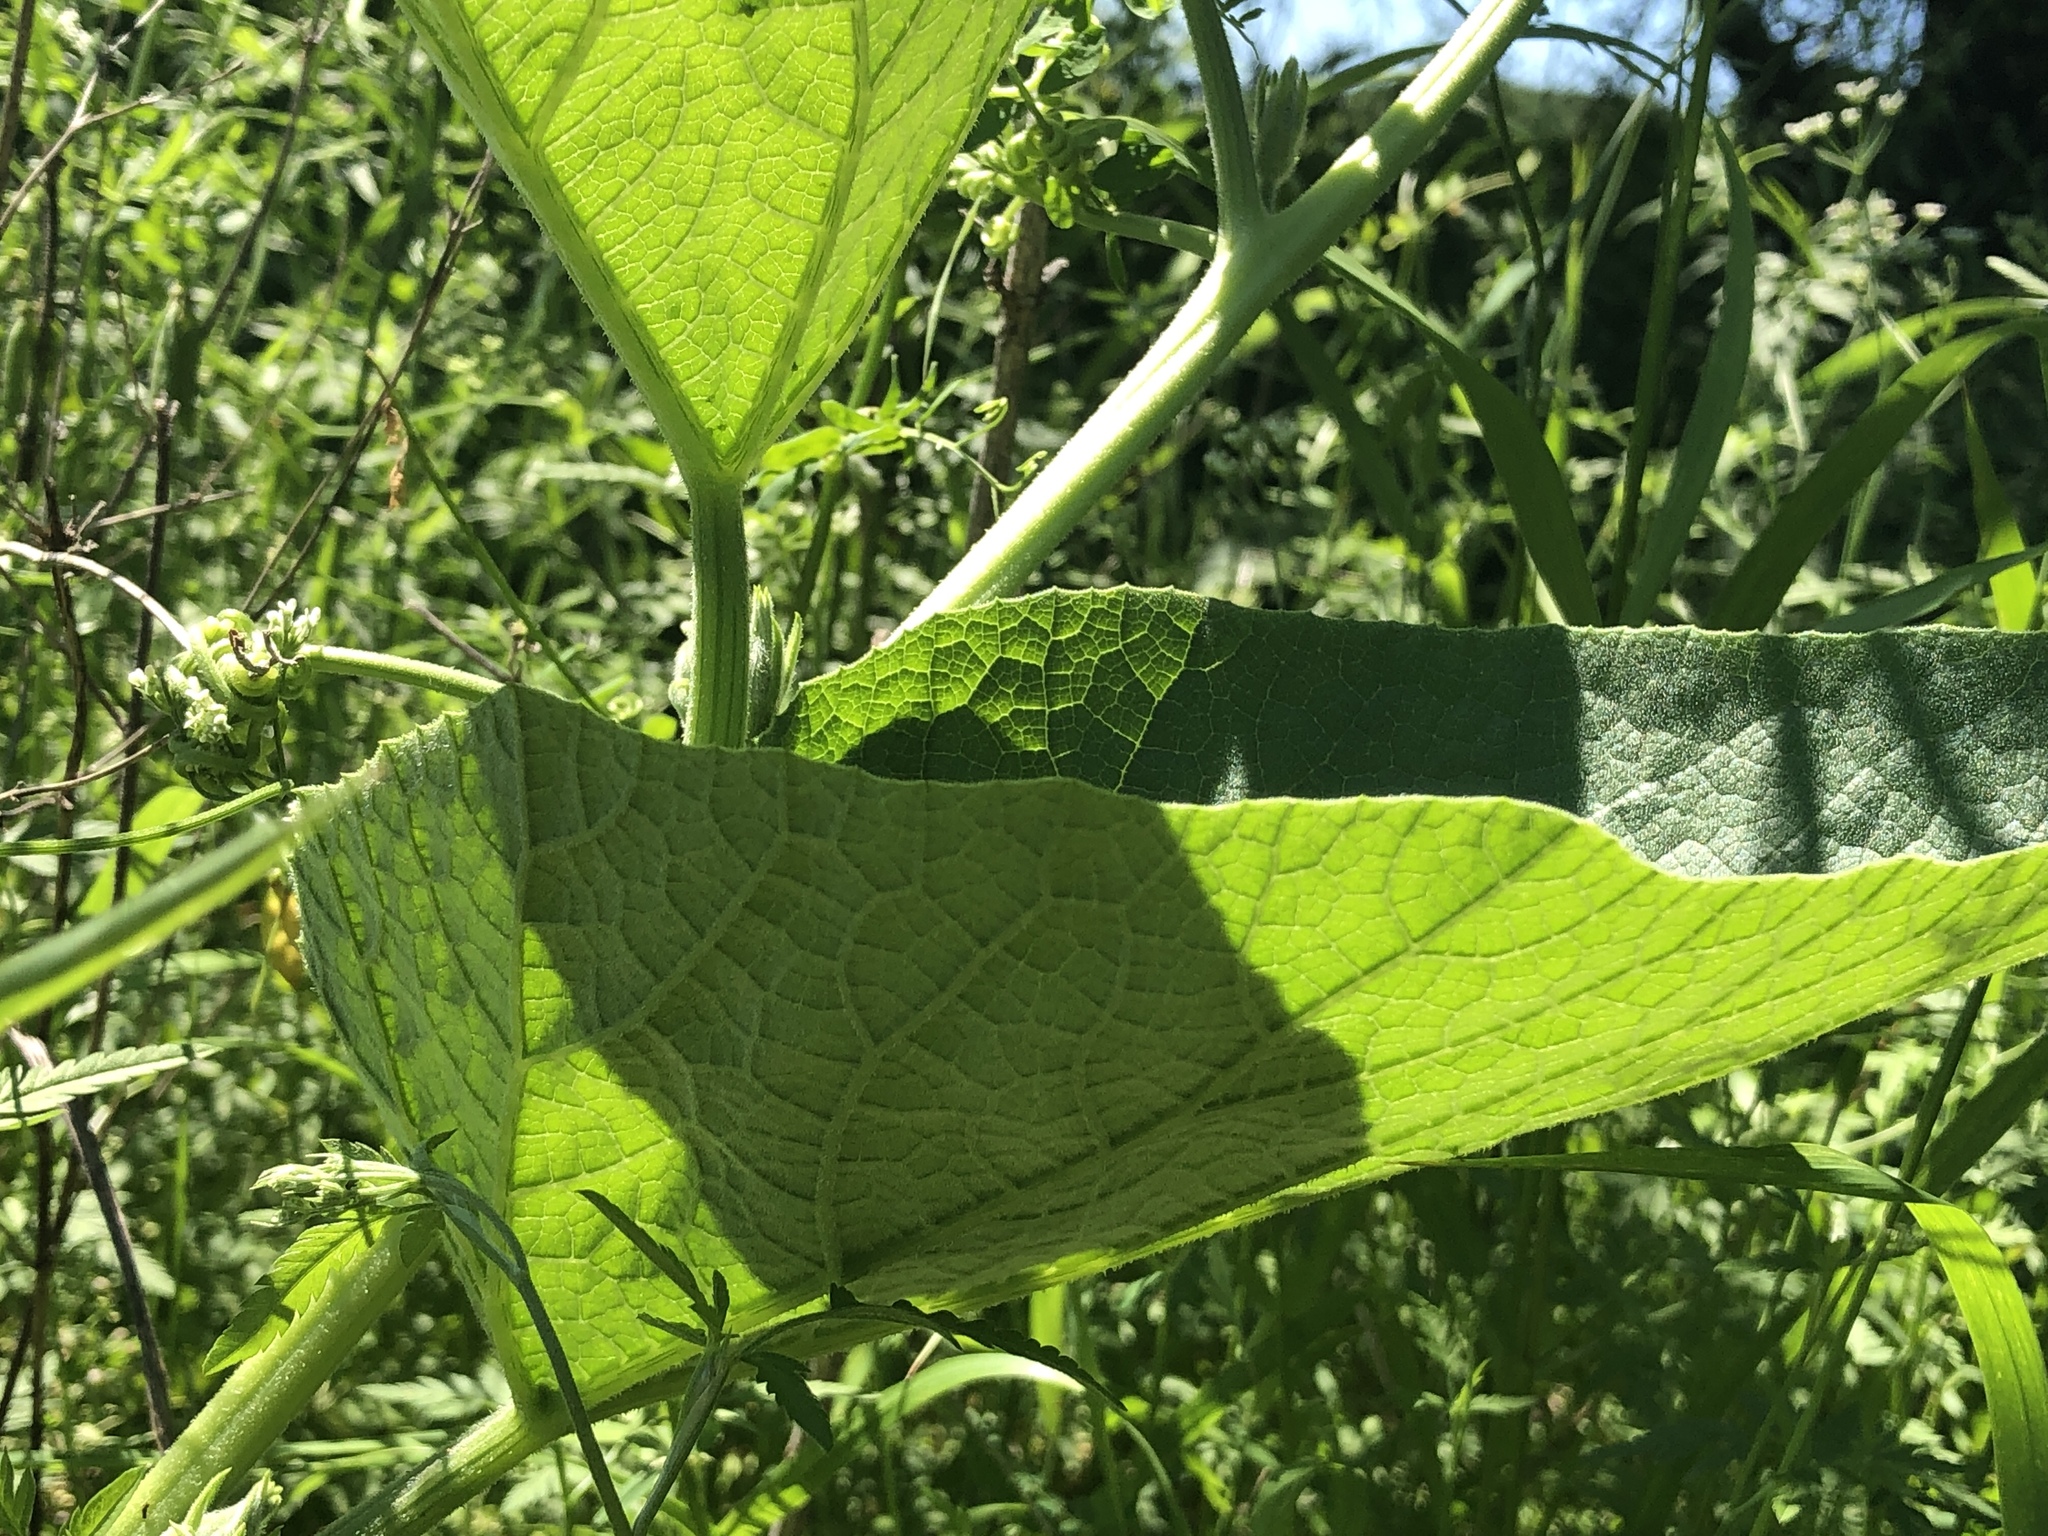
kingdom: Plantae
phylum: Tracheophyta
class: Magnoliopsida
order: Cucurbitales
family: Cucurbitaceae
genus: Cucurbita
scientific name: Cucurbita foetidissima
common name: Buffalo gourd
